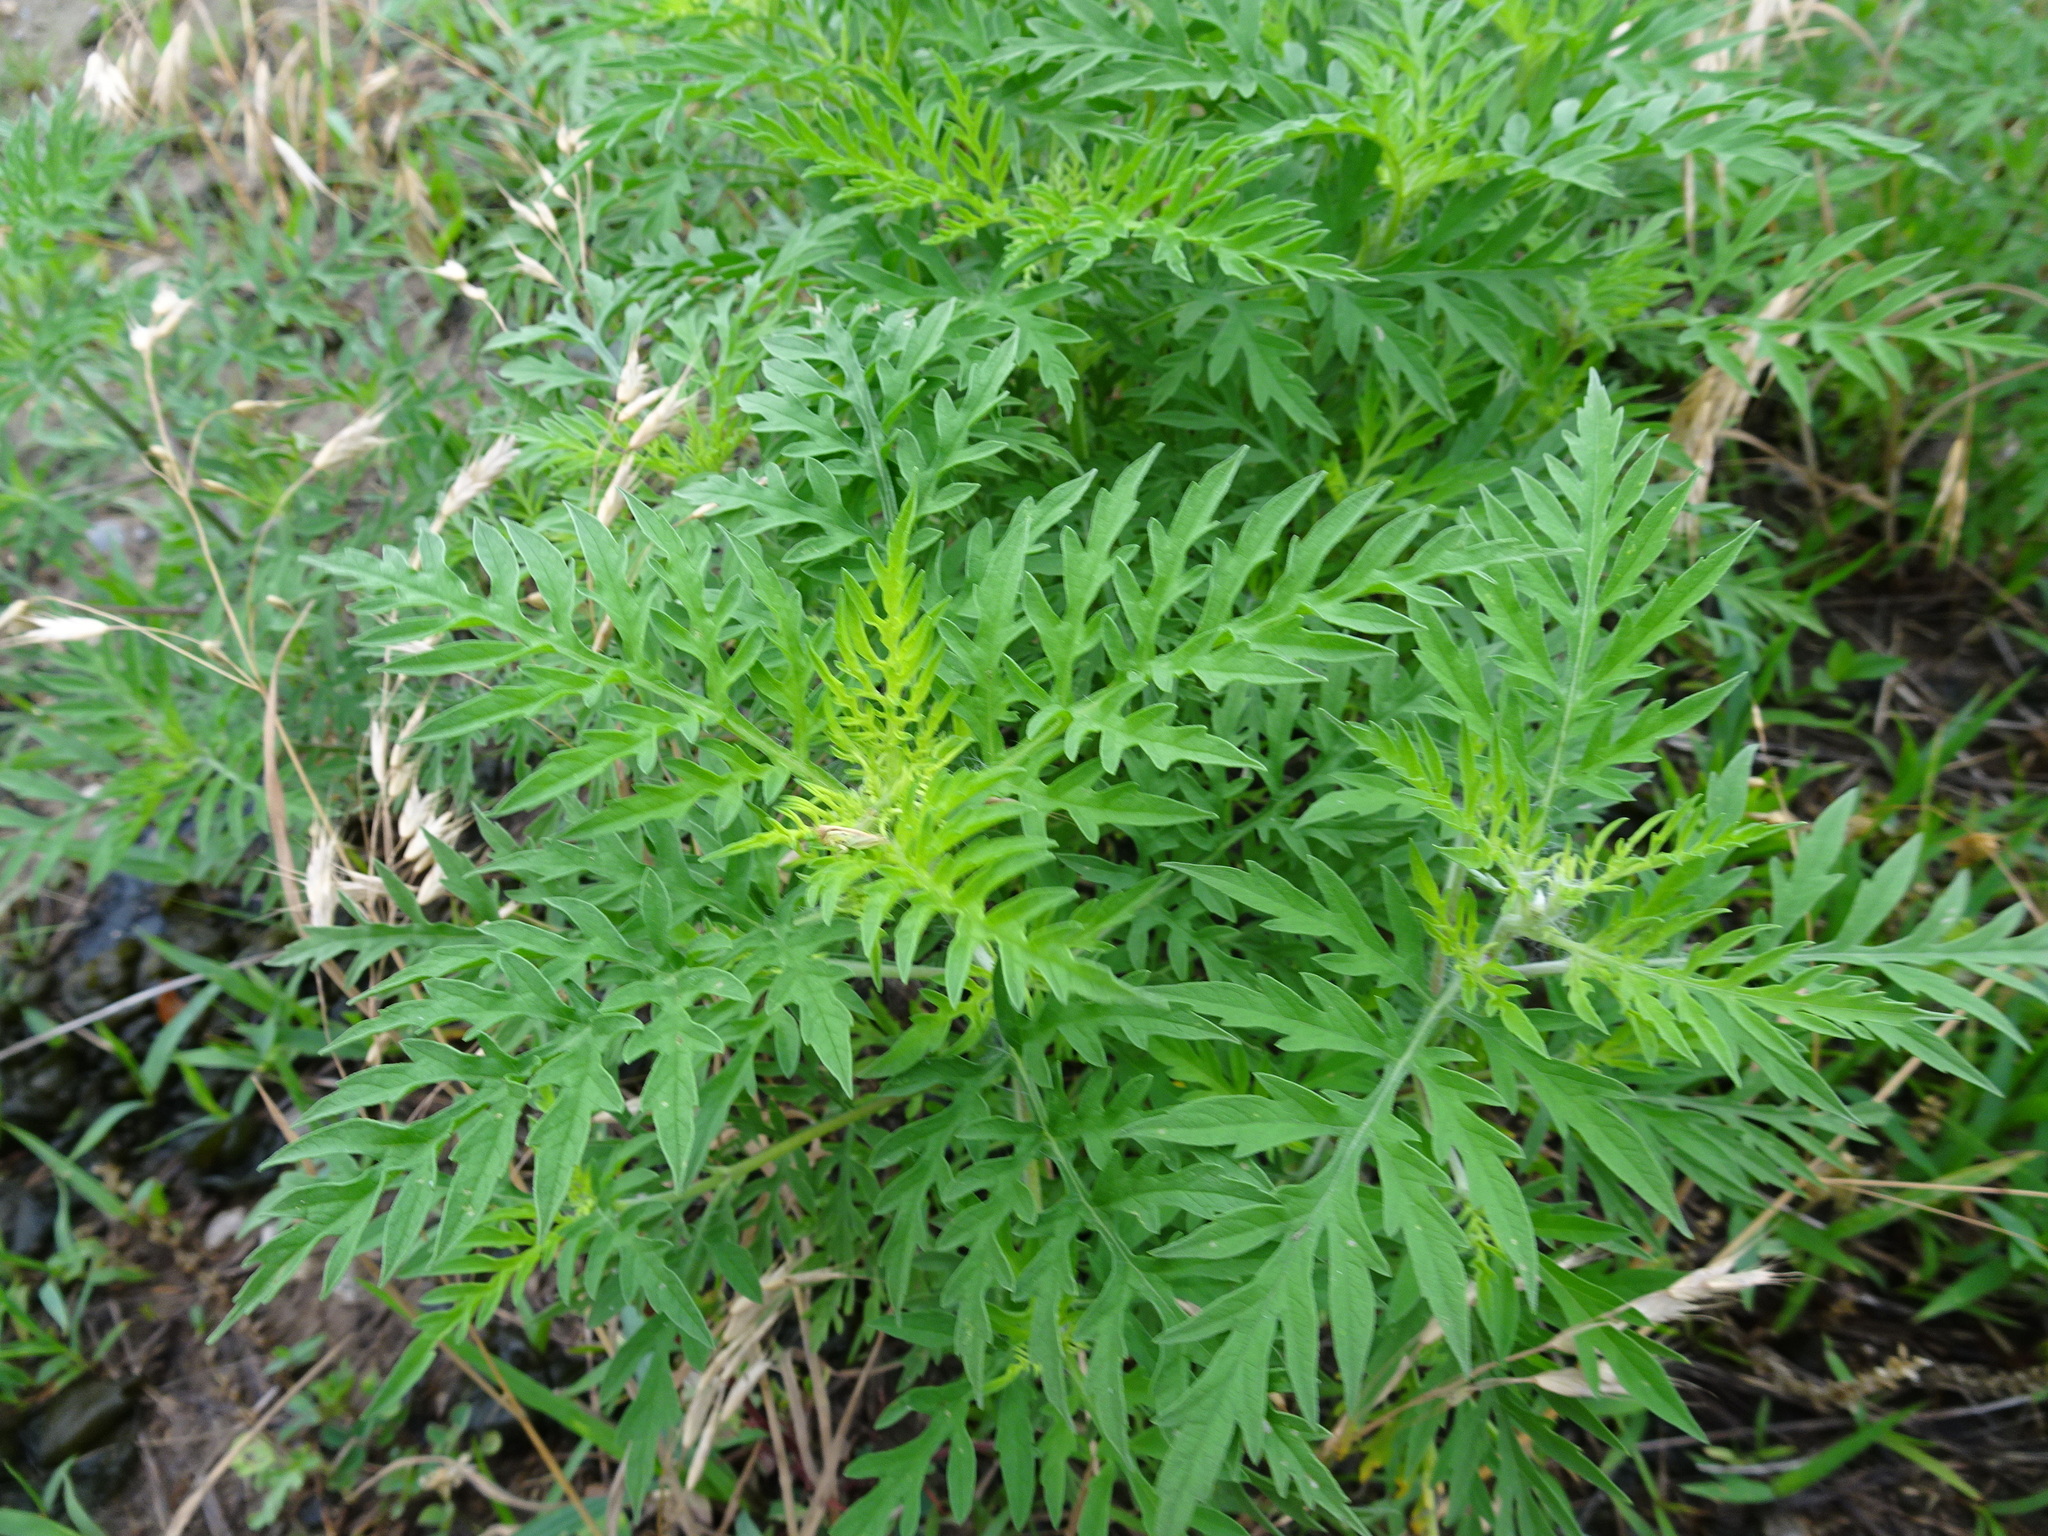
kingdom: Plantae
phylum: Tracheophyta
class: Magnoliopsida
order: Asterales
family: Asteraceae
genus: Ambrosia
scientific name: Ambrosia artemisiifolia
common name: Annual ragweed
